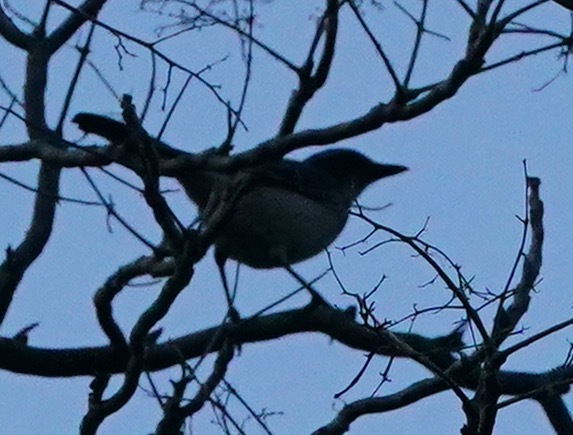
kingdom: Animalia
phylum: Chordata
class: Aves
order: Passeriformes
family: Corvidae
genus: Aphelocoma
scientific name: Aphelocoma californica
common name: California scrub-jay
